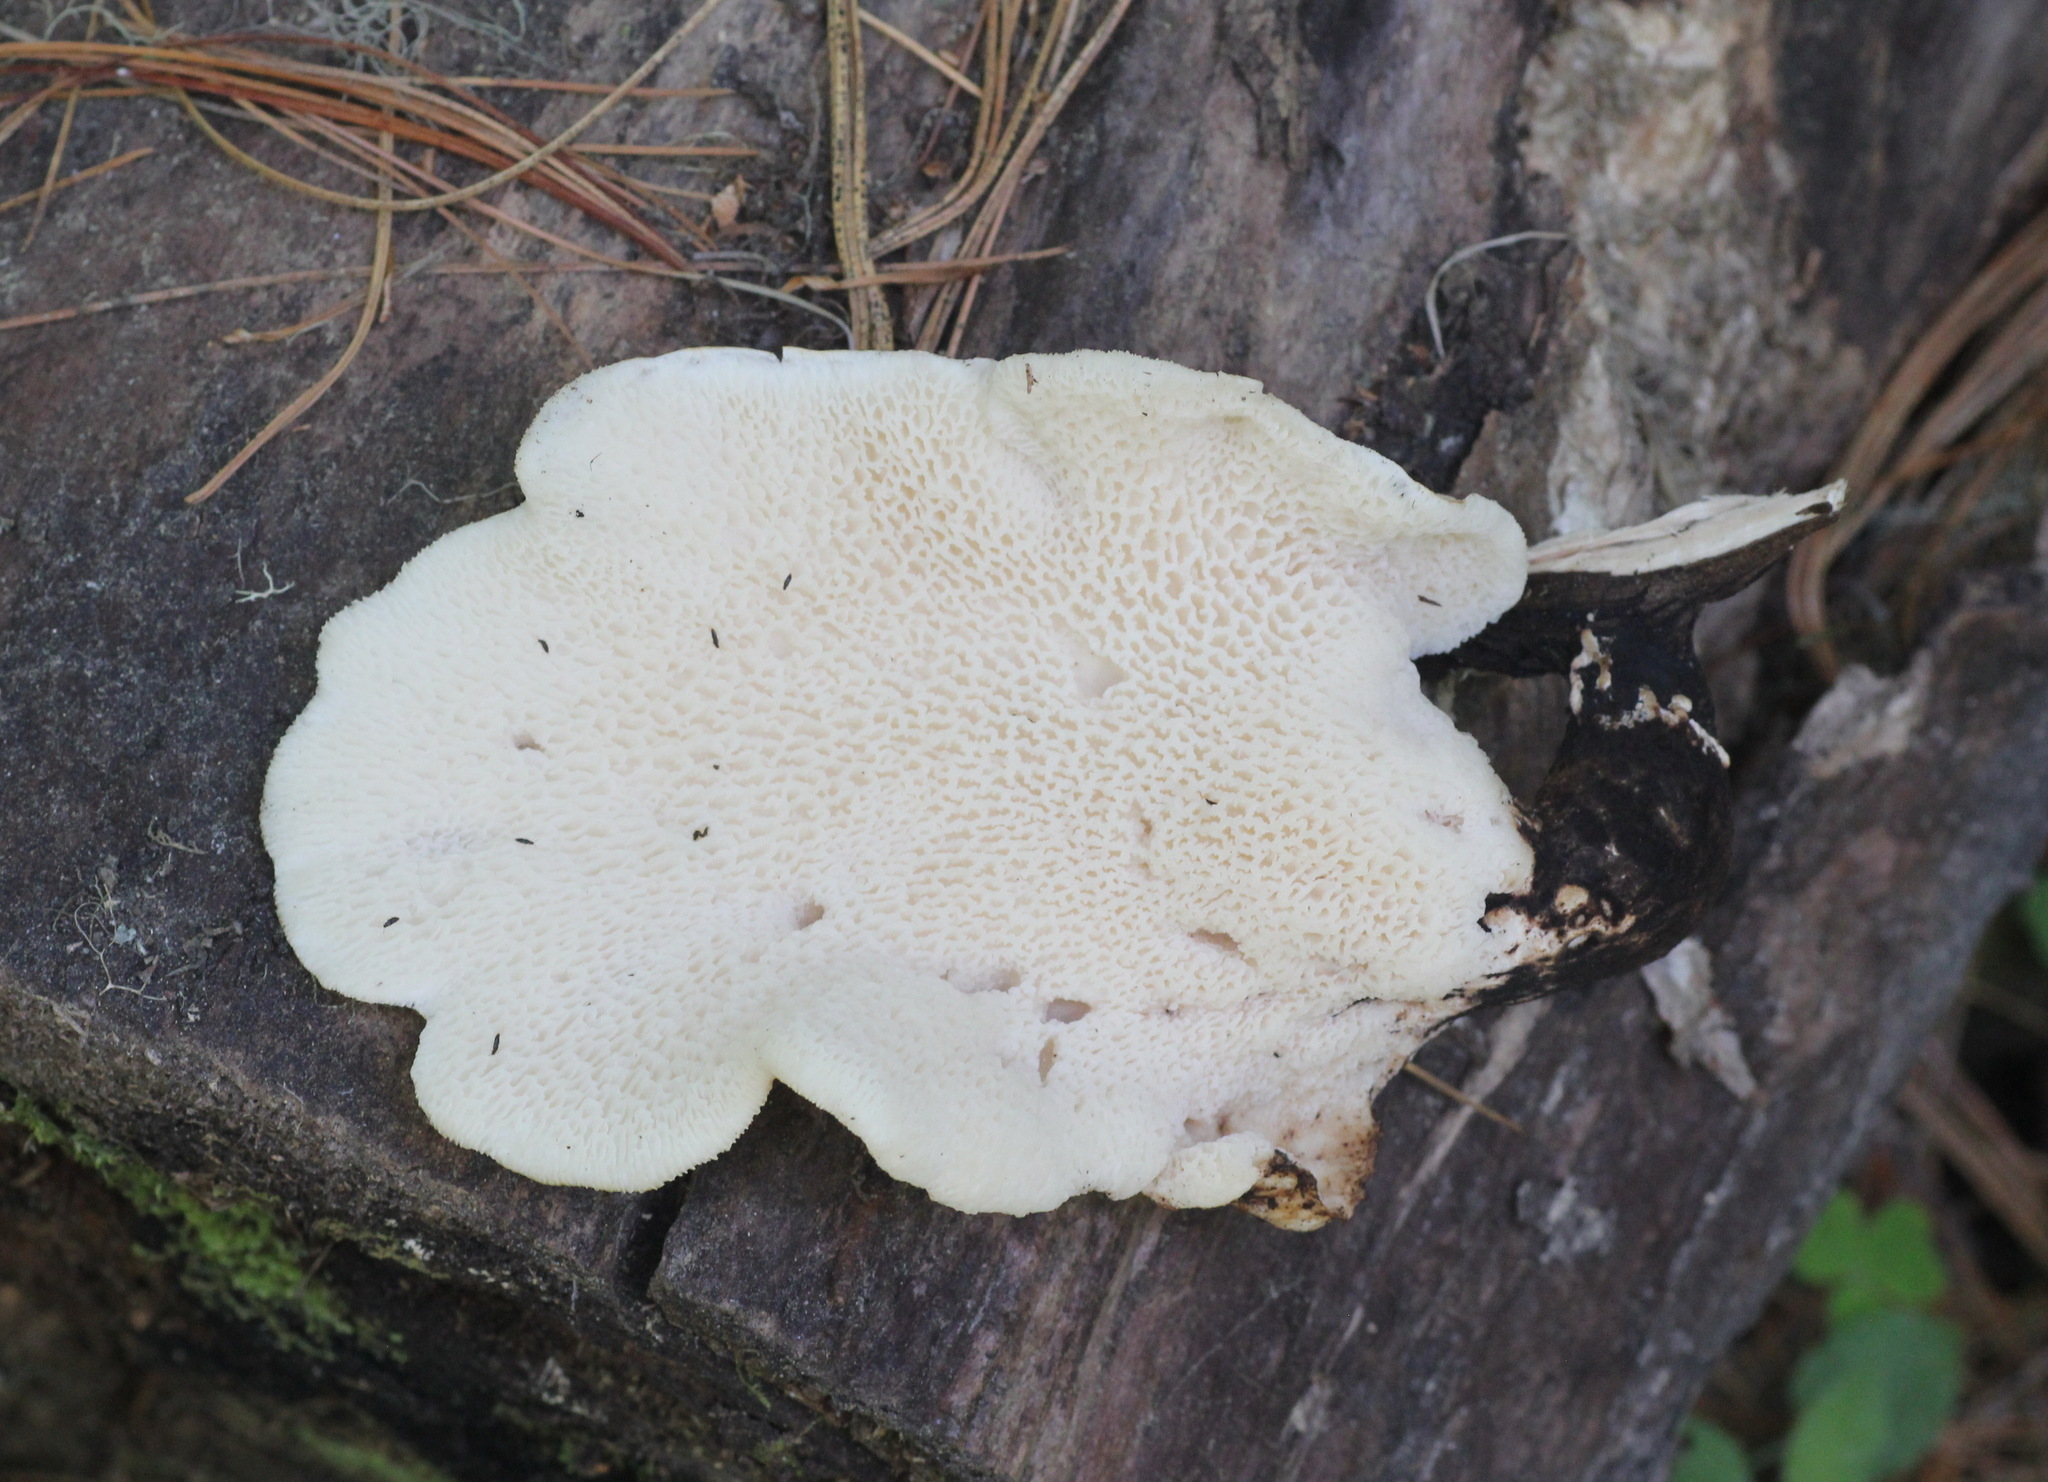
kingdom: Fungi
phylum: Basidiomycota
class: Agaricomycetes
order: Polyporales
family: Polyporaceae
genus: Cerioporus
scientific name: Cerioporus squamosus
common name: Dryad's saddle
